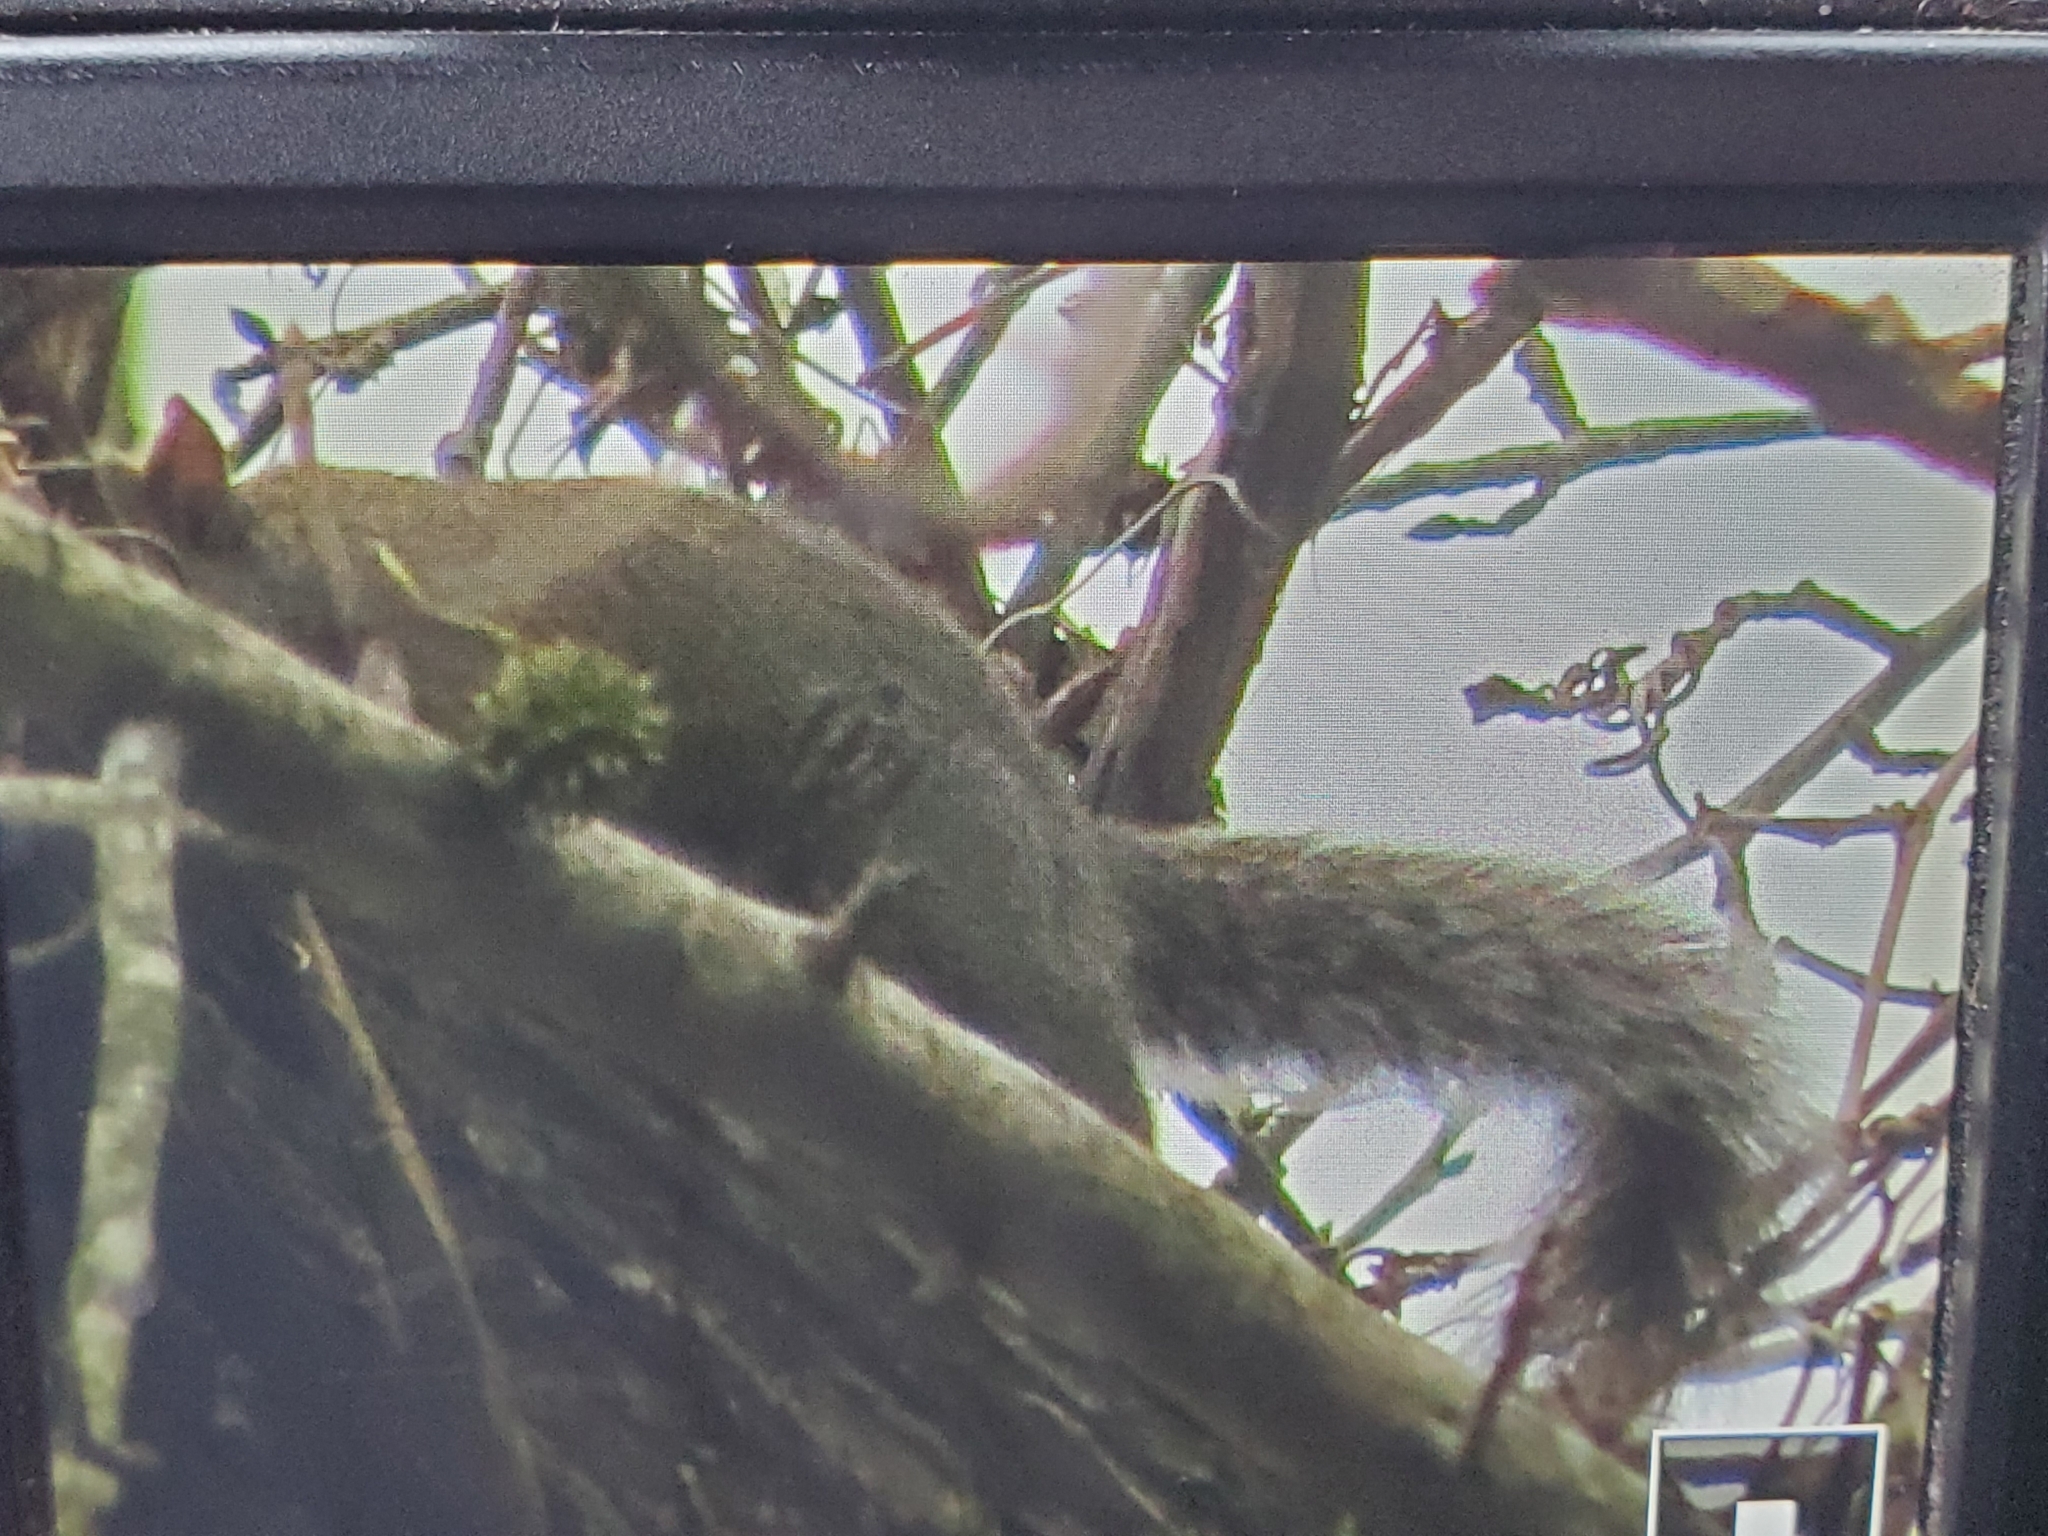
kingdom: Animalia
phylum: Chordata
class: Mammalia
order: Rodentia
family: Sciuridae
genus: Sciurus
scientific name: Sciurus carolinensis
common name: Eastern gray squirrel
